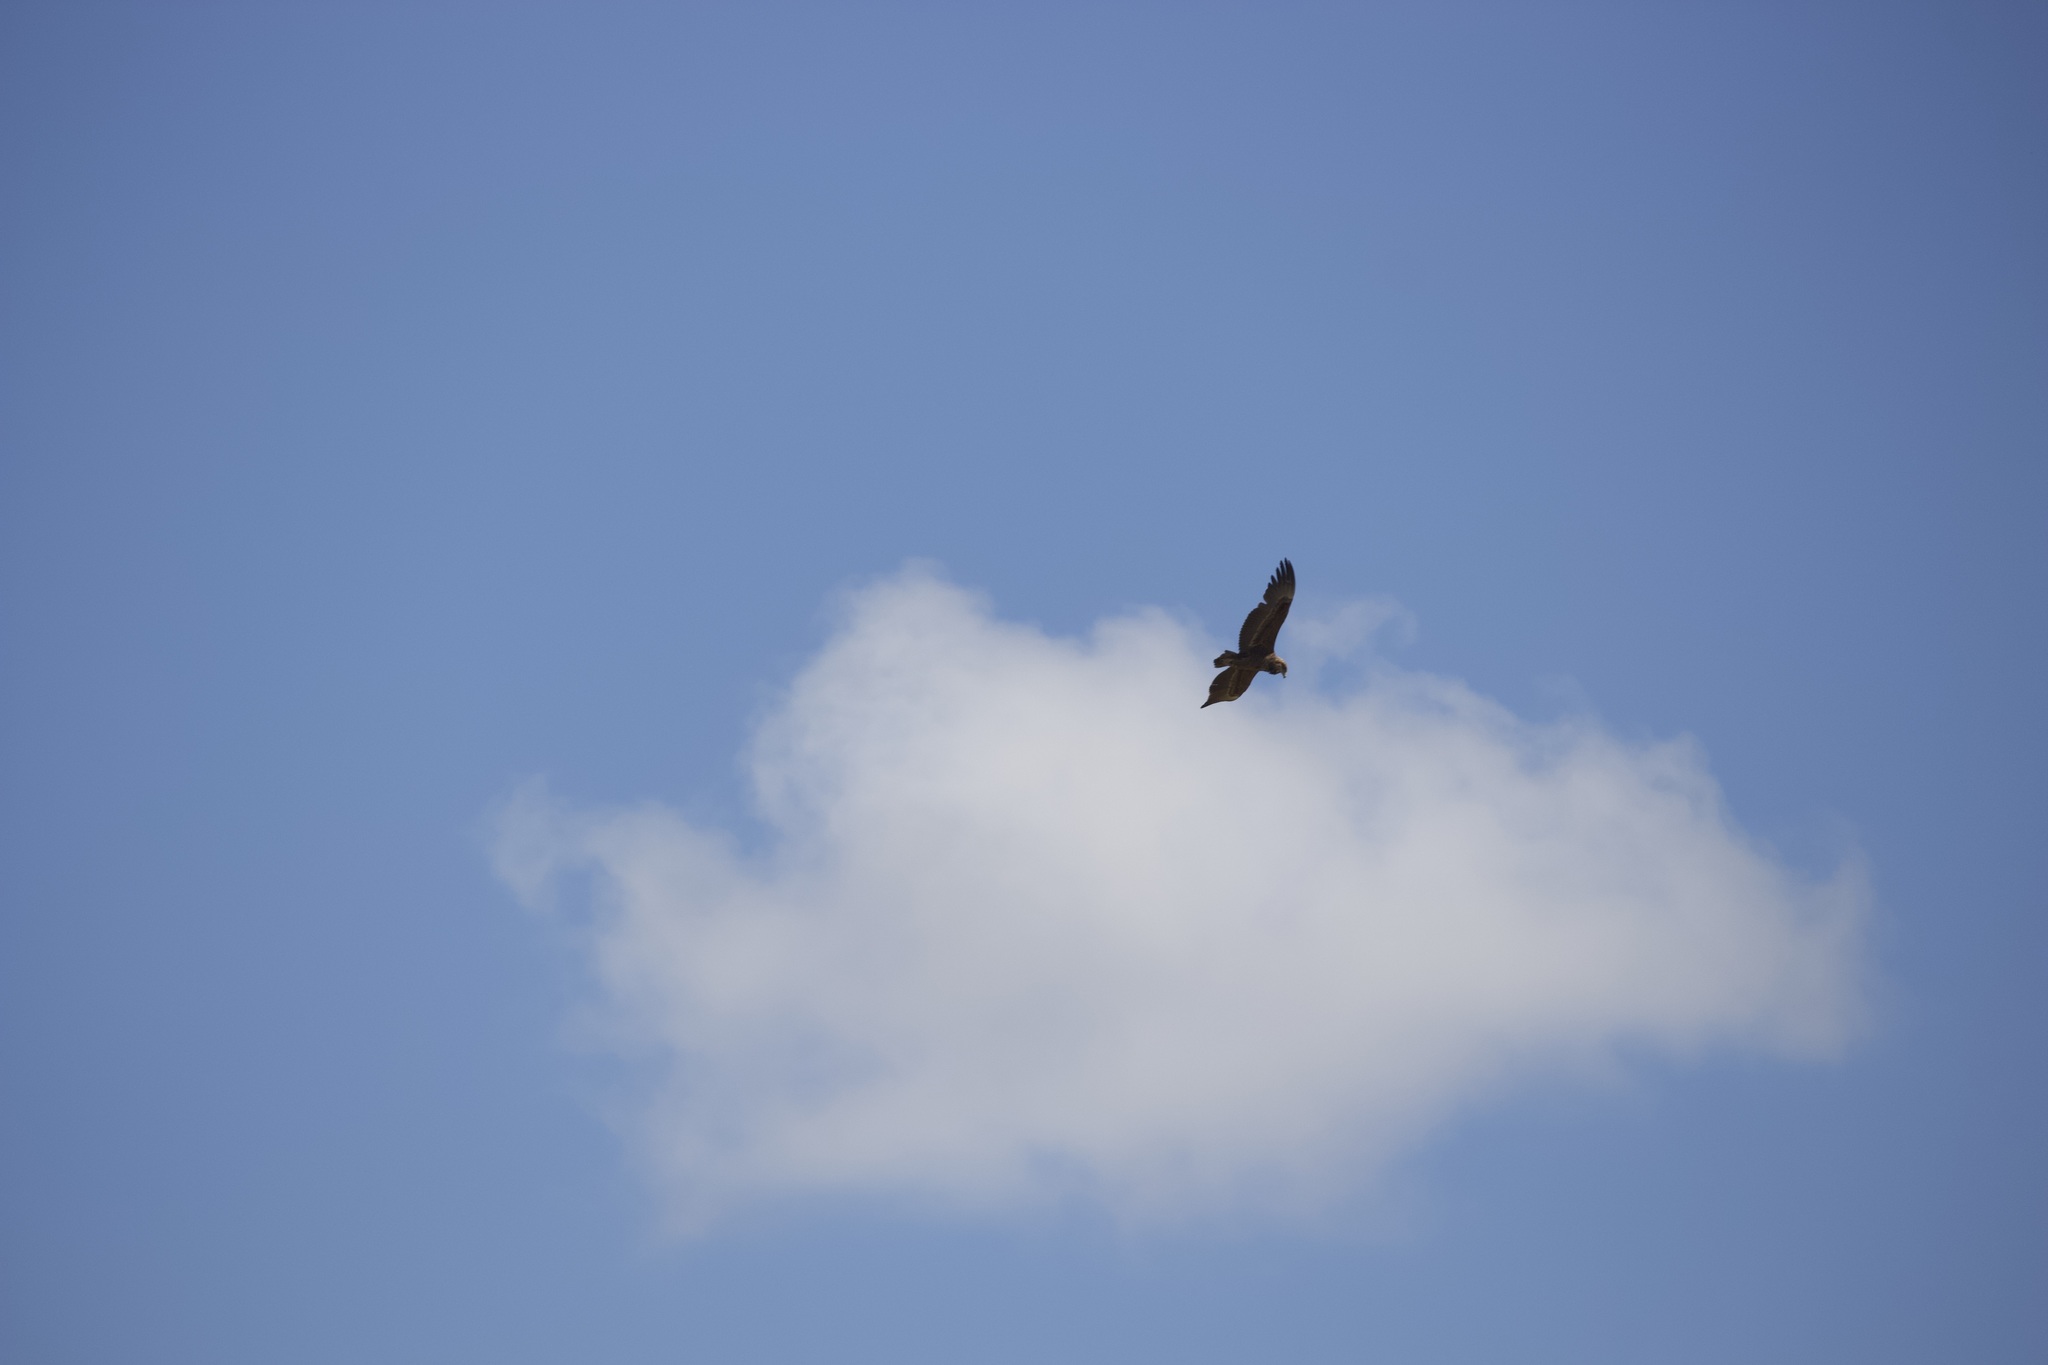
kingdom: Animalia
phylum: Chordata
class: Aves
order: Accipitriformes
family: Accipitridae
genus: Terathopius
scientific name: Terathopius ecaudatus
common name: Bateleur
